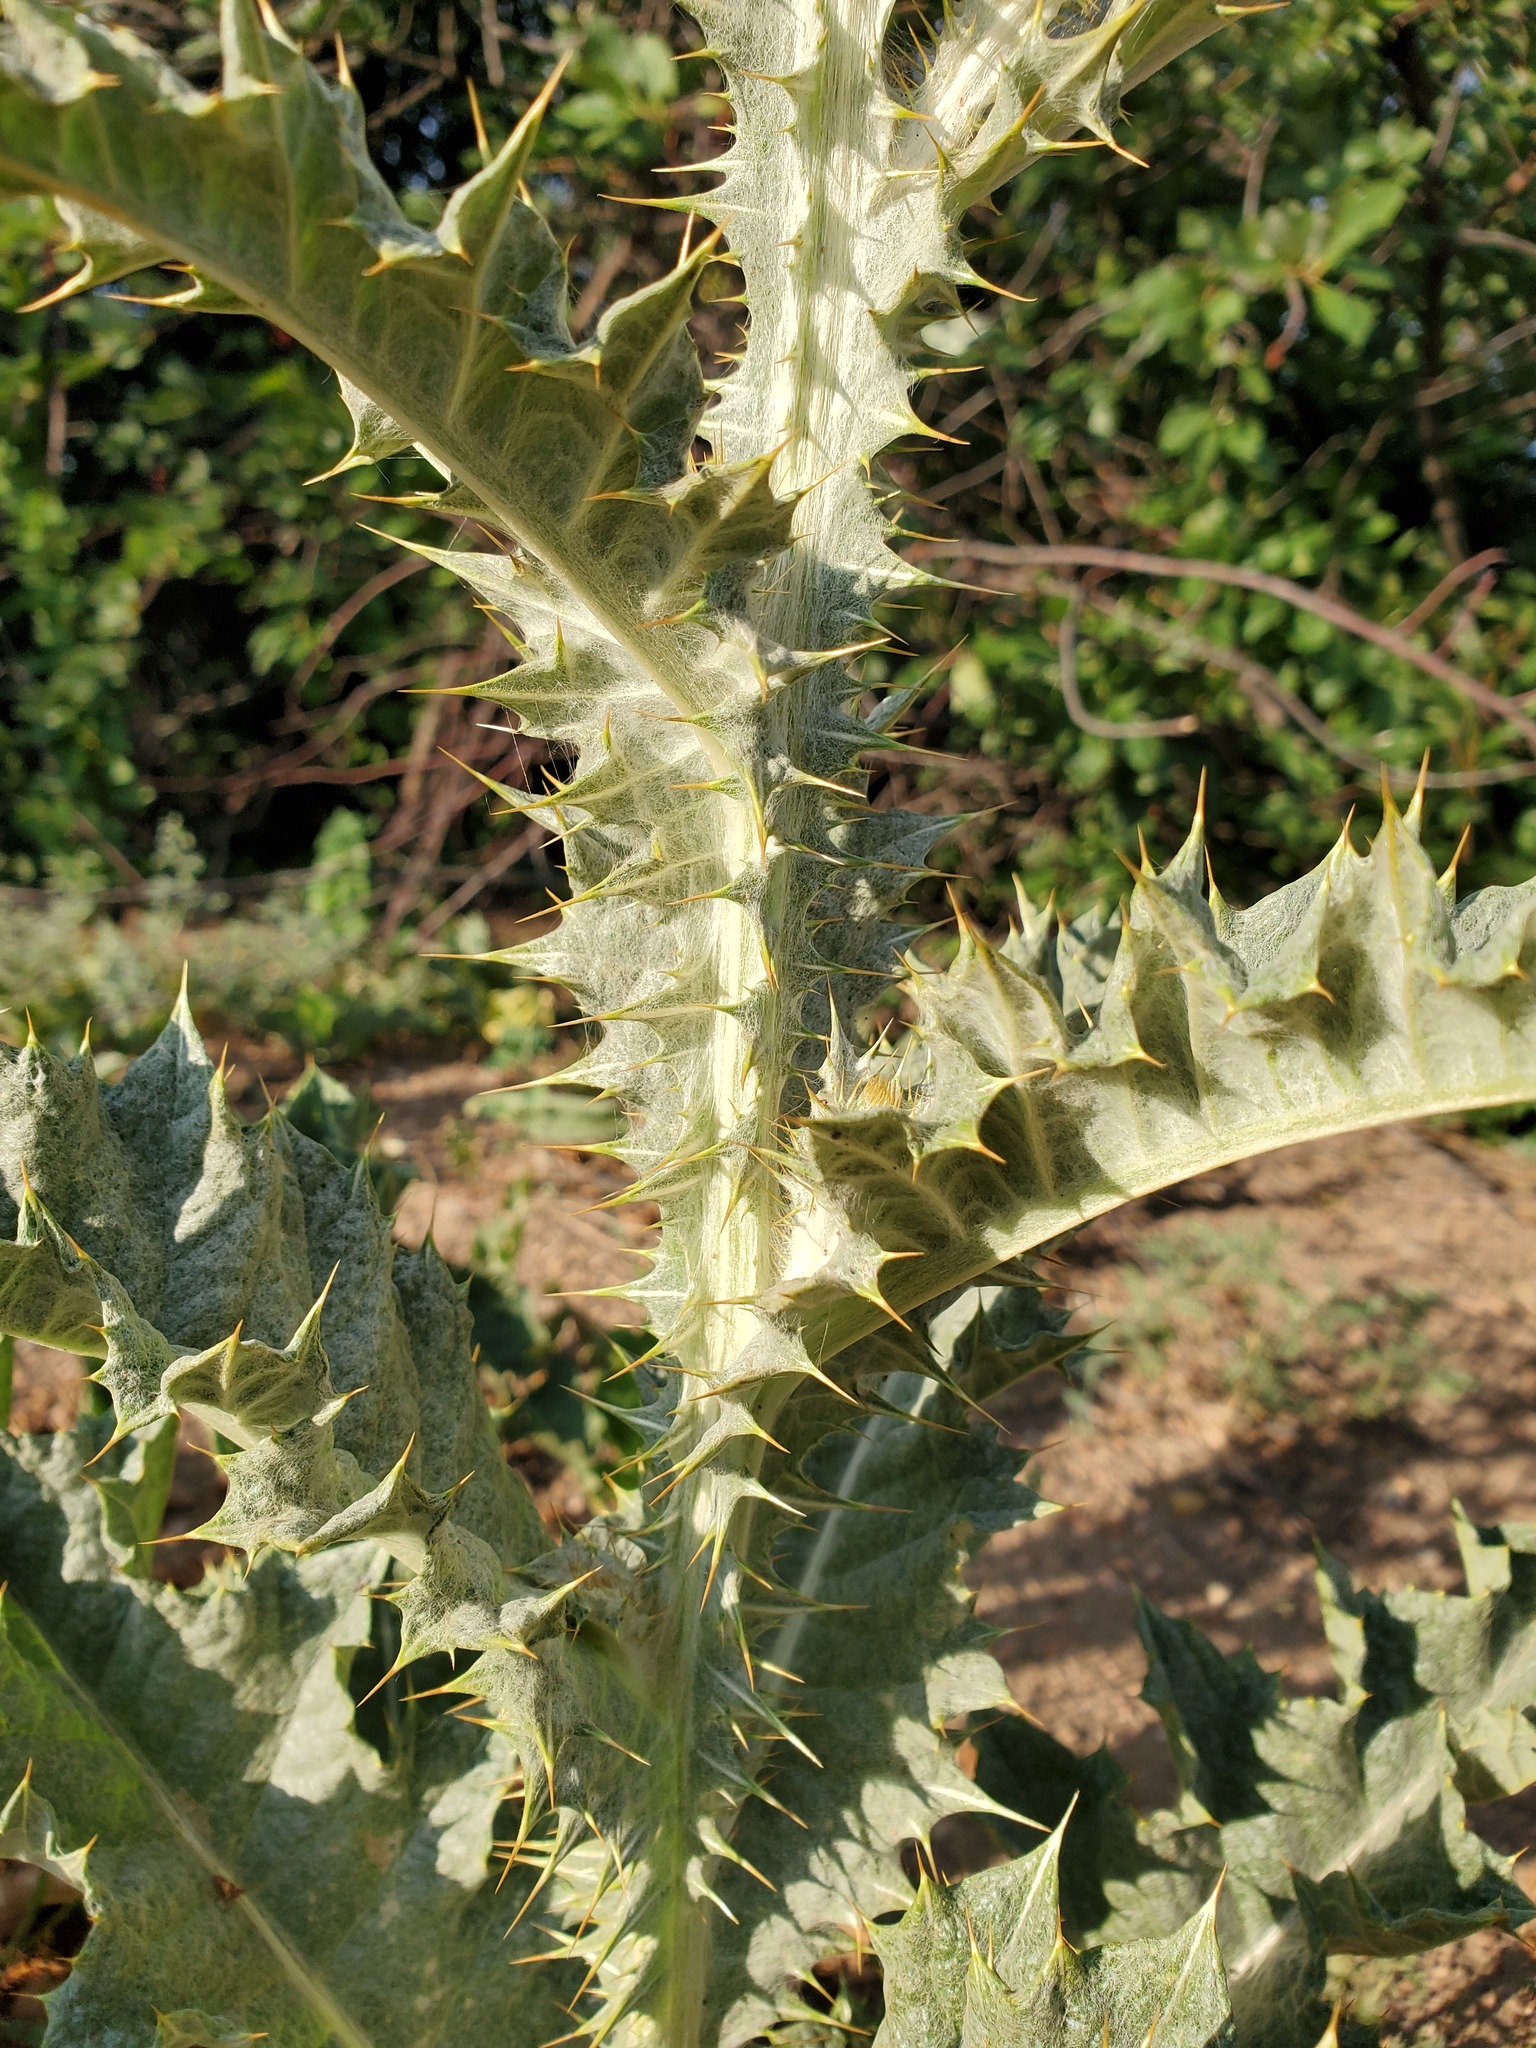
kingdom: Plantae
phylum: Tracheophyta
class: Magnoliopsida
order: Asterales
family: Asteraceae
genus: Onopordum
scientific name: Onopordum acanthium
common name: Scotch thistle
